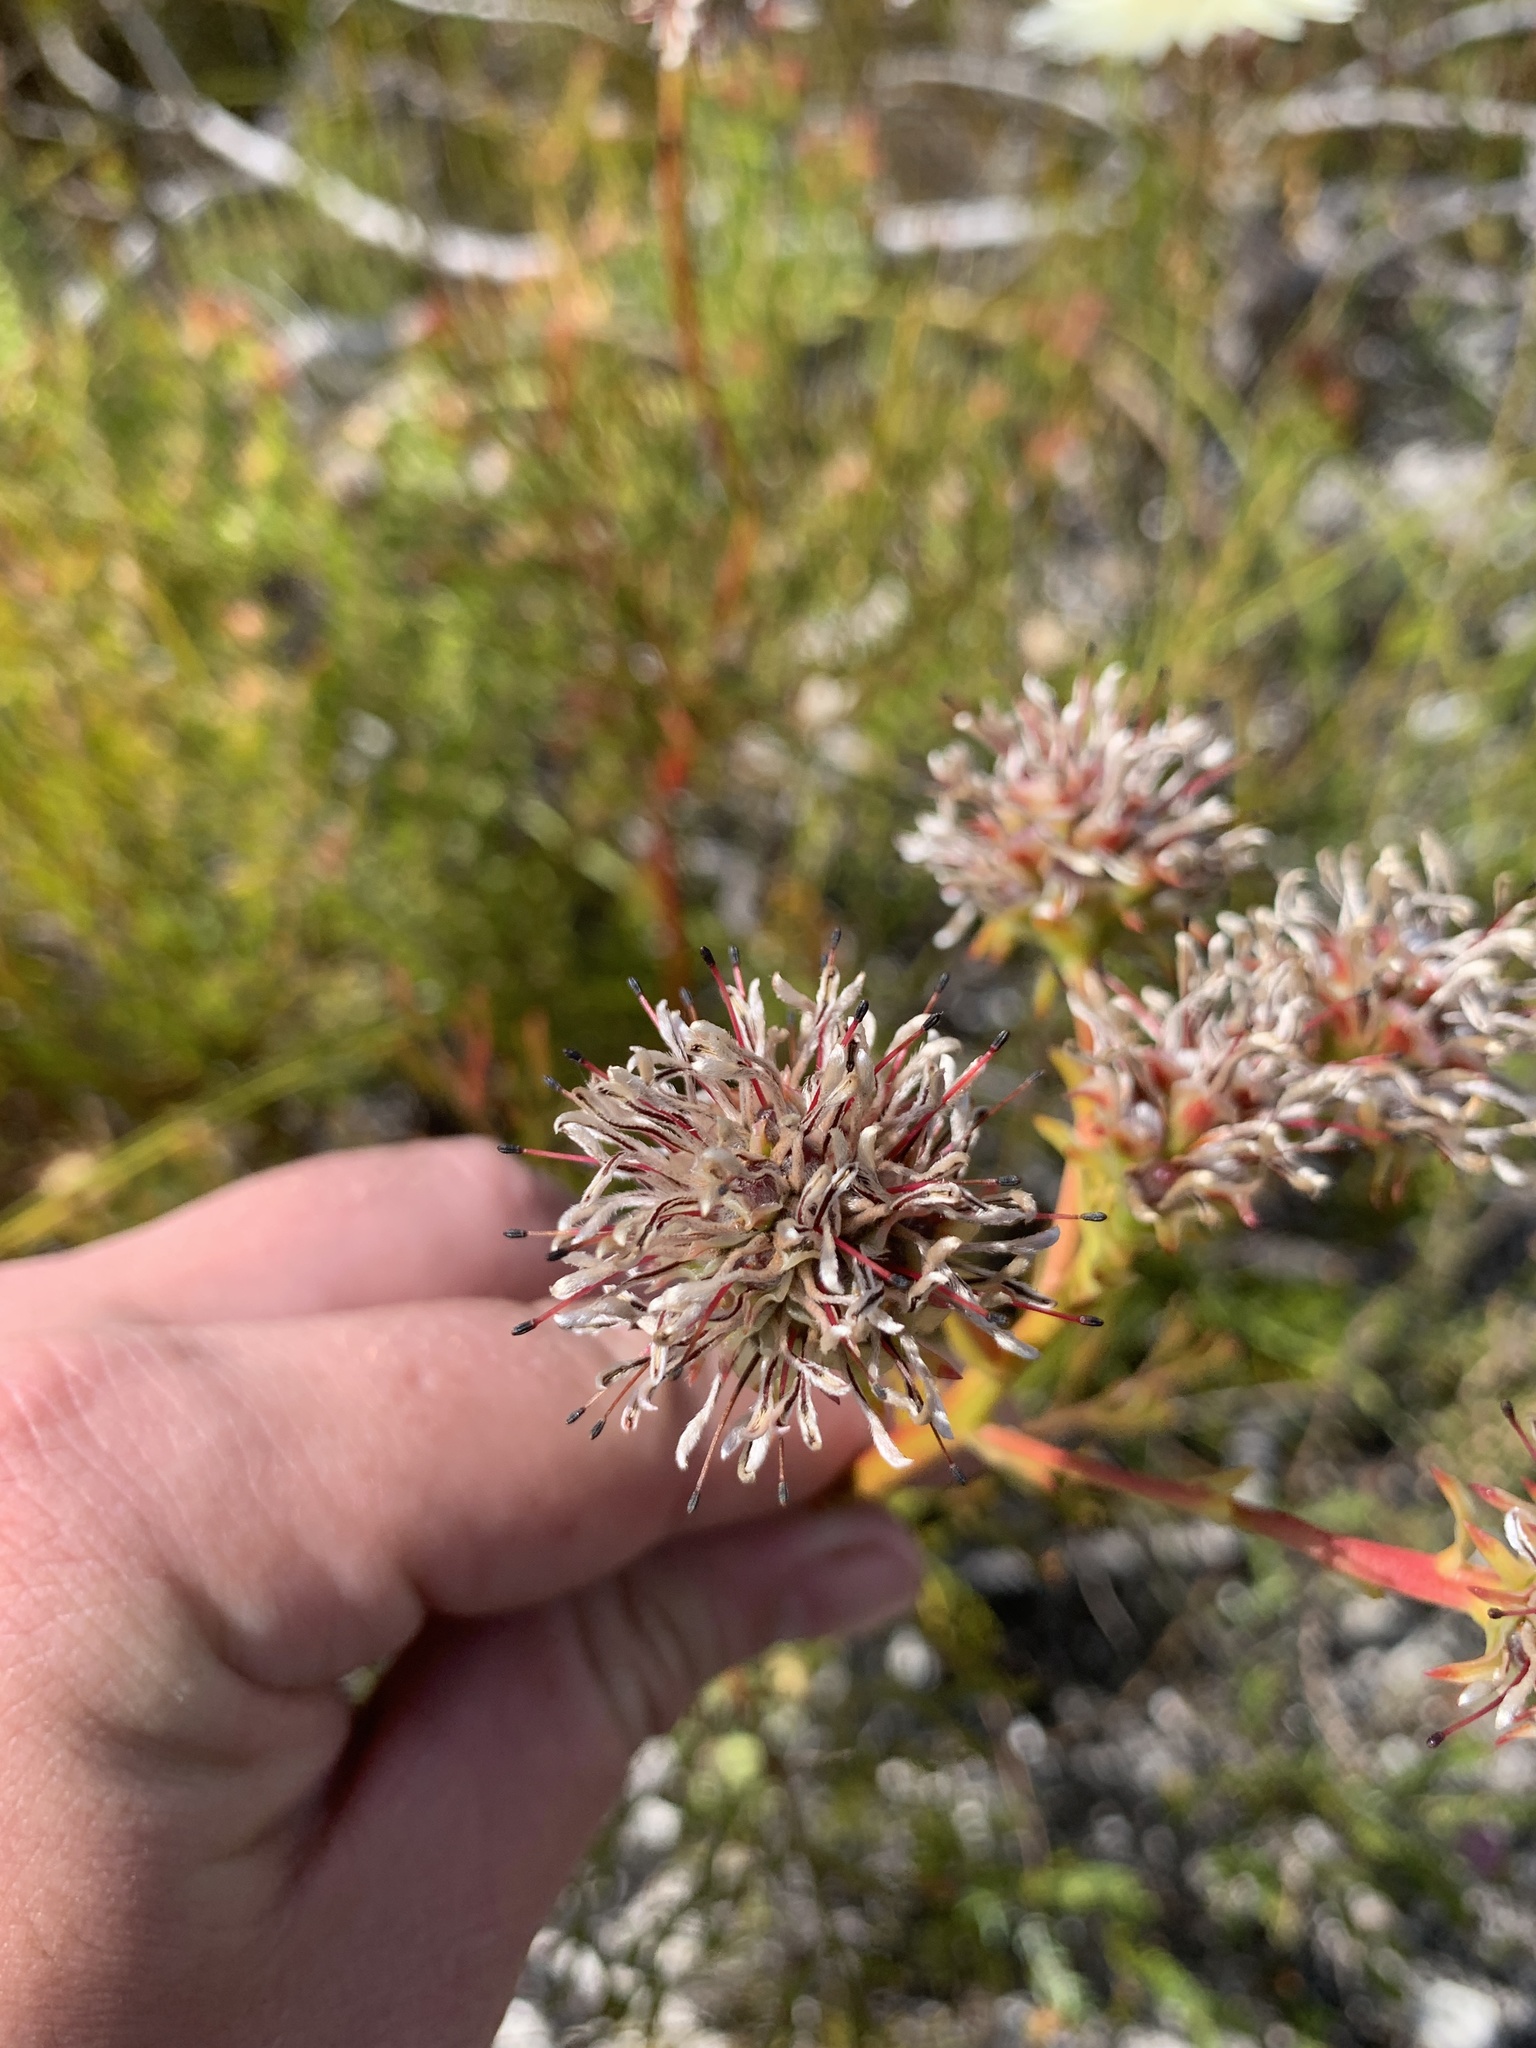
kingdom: Plantae
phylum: Tracheophyta
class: Magnoliopsida
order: Proteales
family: Proteaceae
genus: Serruria
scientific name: Serruria elongata
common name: Long-stalk spiderhead
